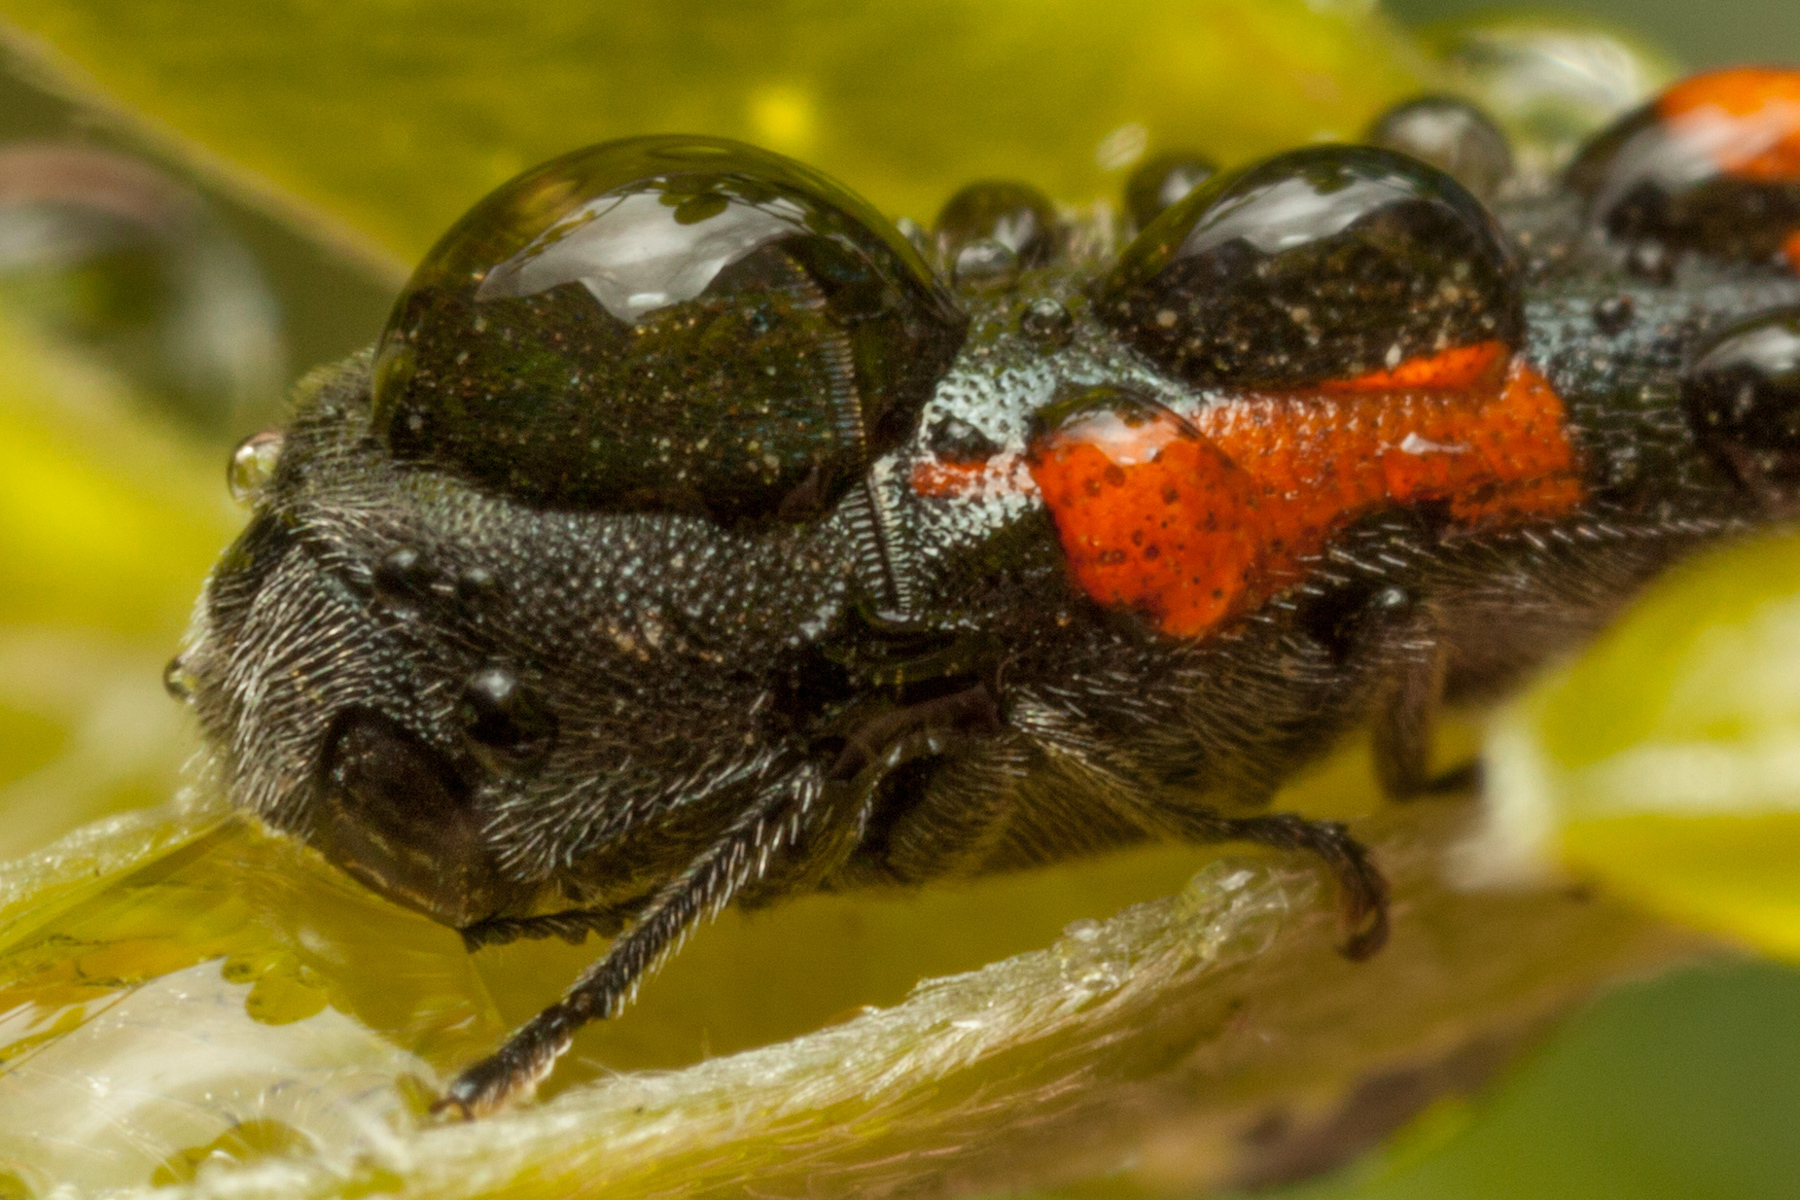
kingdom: Animalia
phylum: Arthropoda
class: Insecta
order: Coleoptera
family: Buprestidae
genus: Ptosima
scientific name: Ptosima laeta
